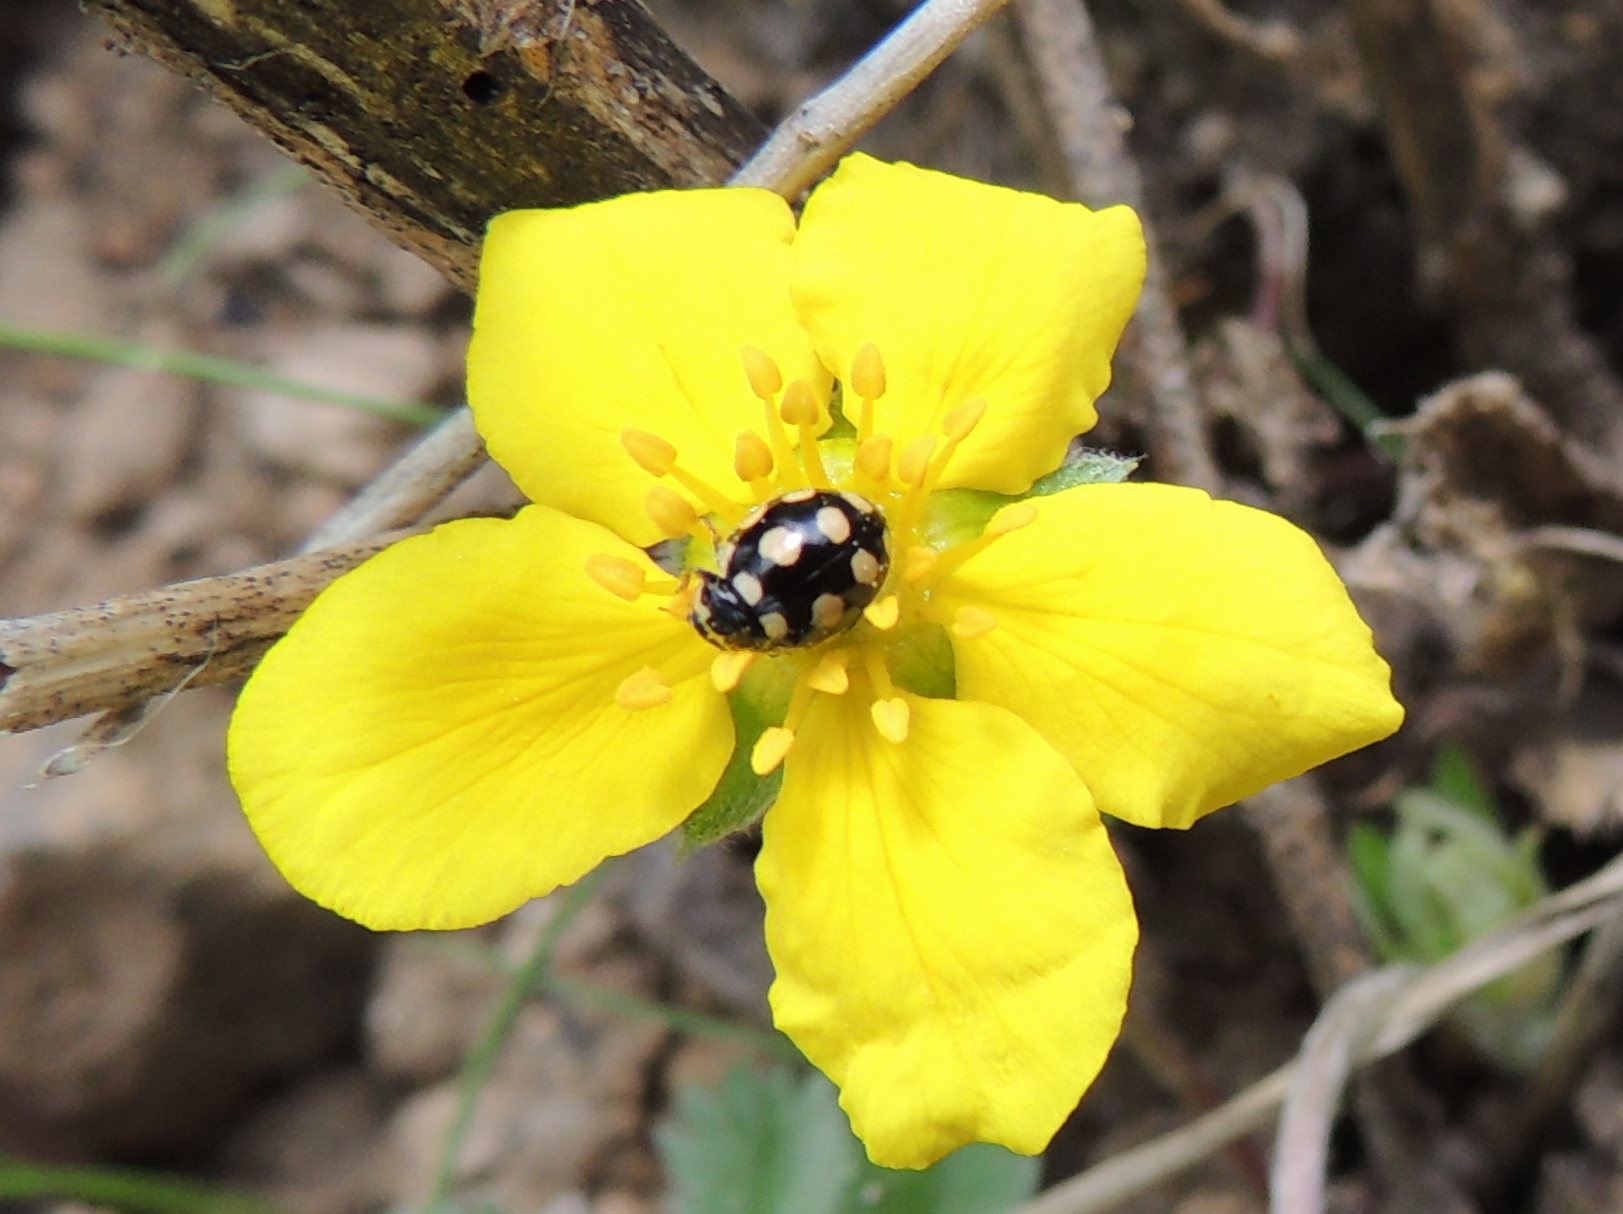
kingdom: Animalia
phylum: Arthropoda
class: Insecta
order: Coleoptera
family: Coccinellidae
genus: Coccinula
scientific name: Coccinula quatuordecimpustulata
